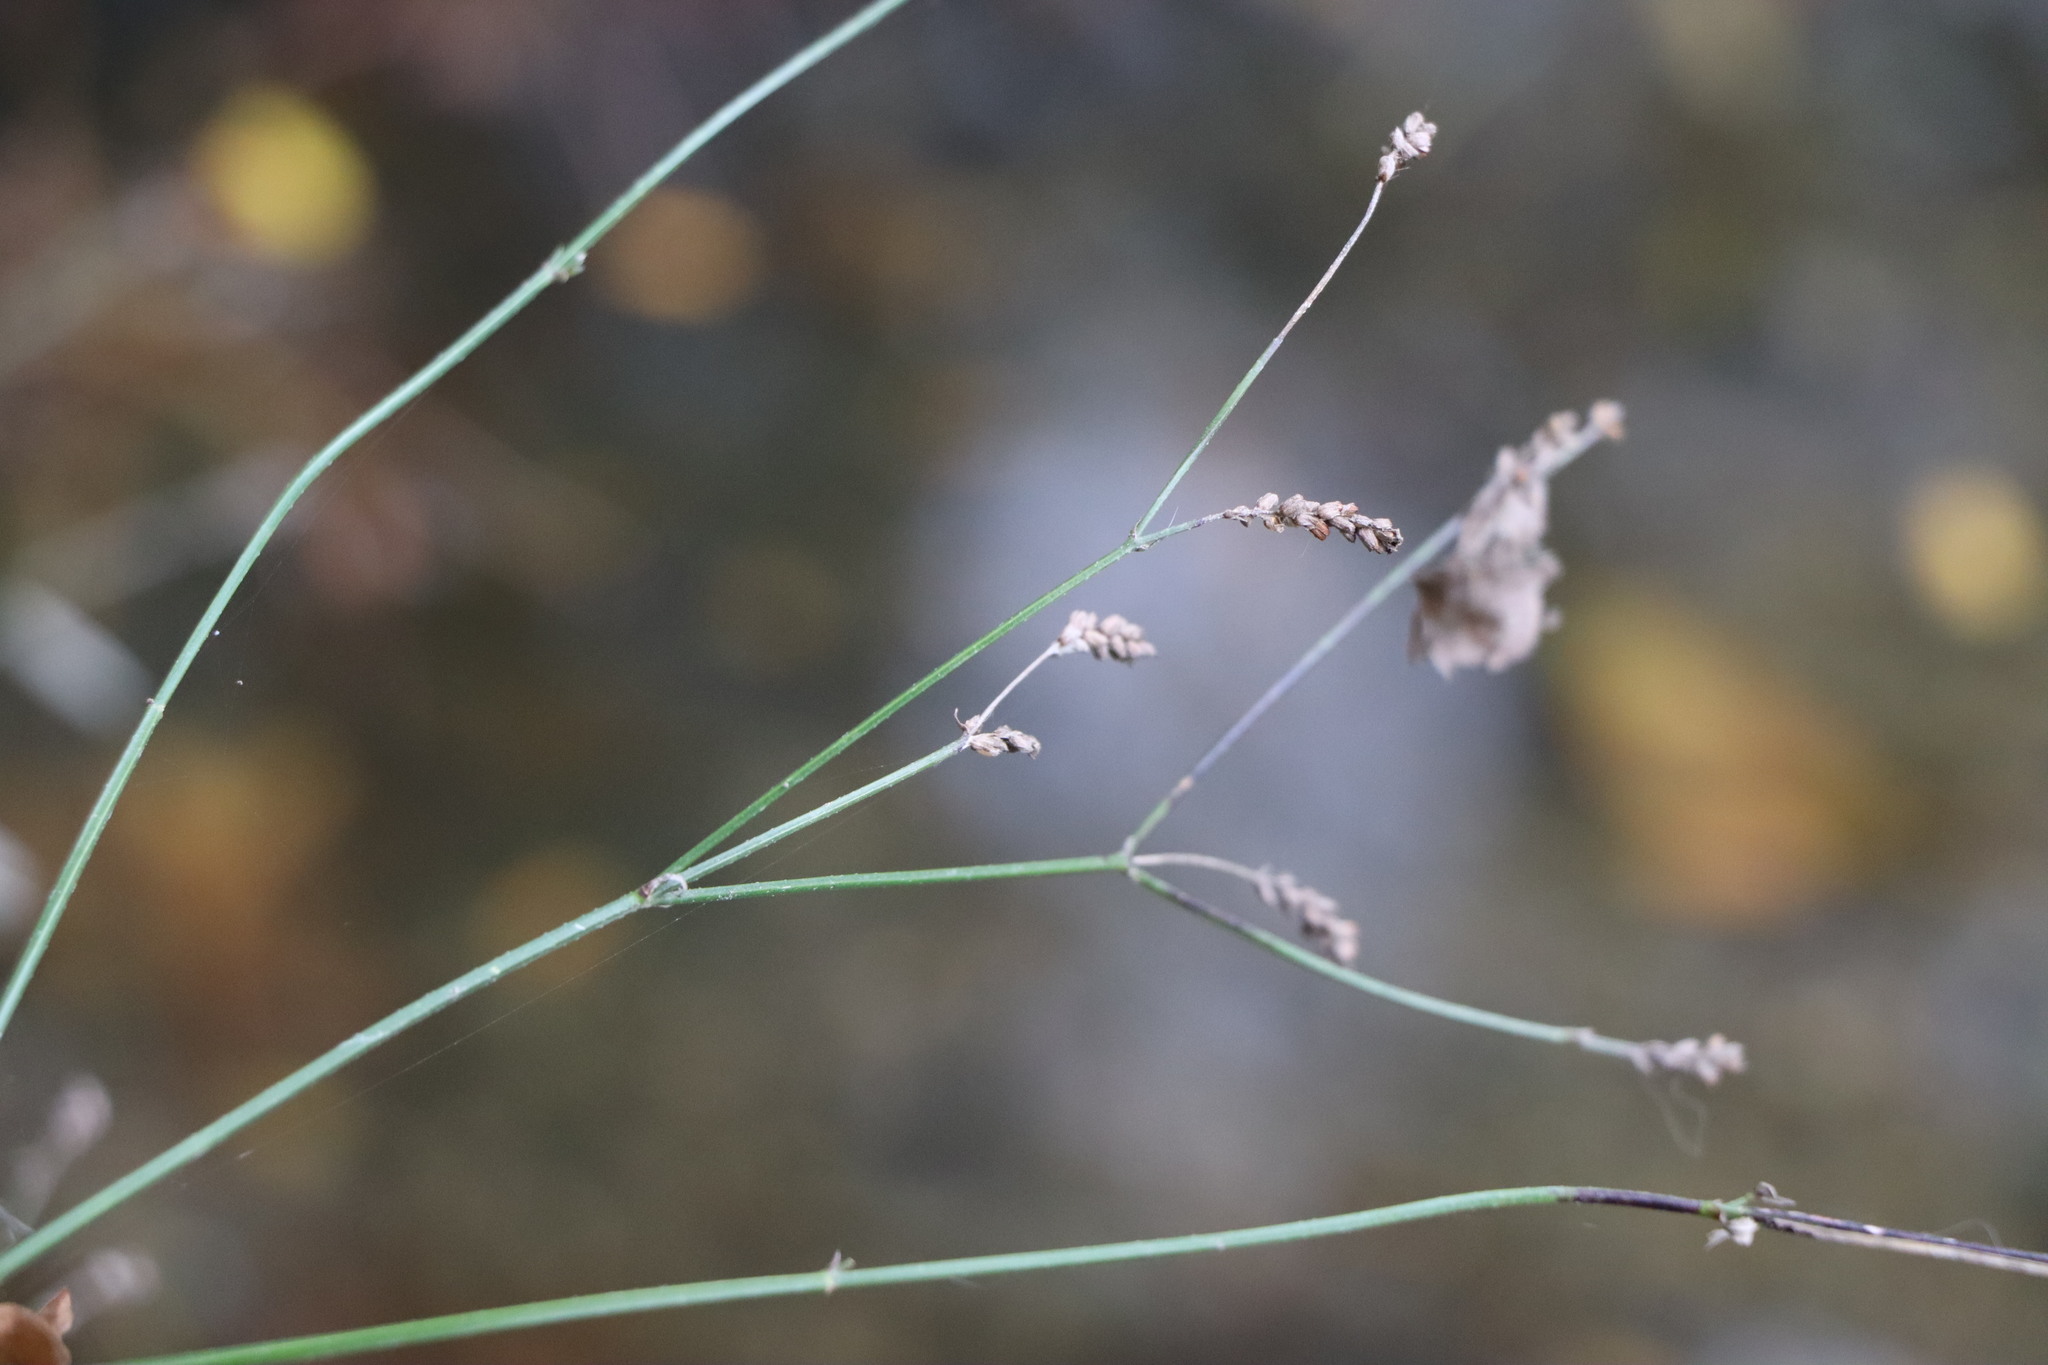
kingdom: Plantae
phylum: Tracheophyta
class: Magnoliopsida
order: Lamiales
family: Verbenaceae
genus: Verbena
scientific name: Verbena montevidensis
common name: Uruguayan vervain
